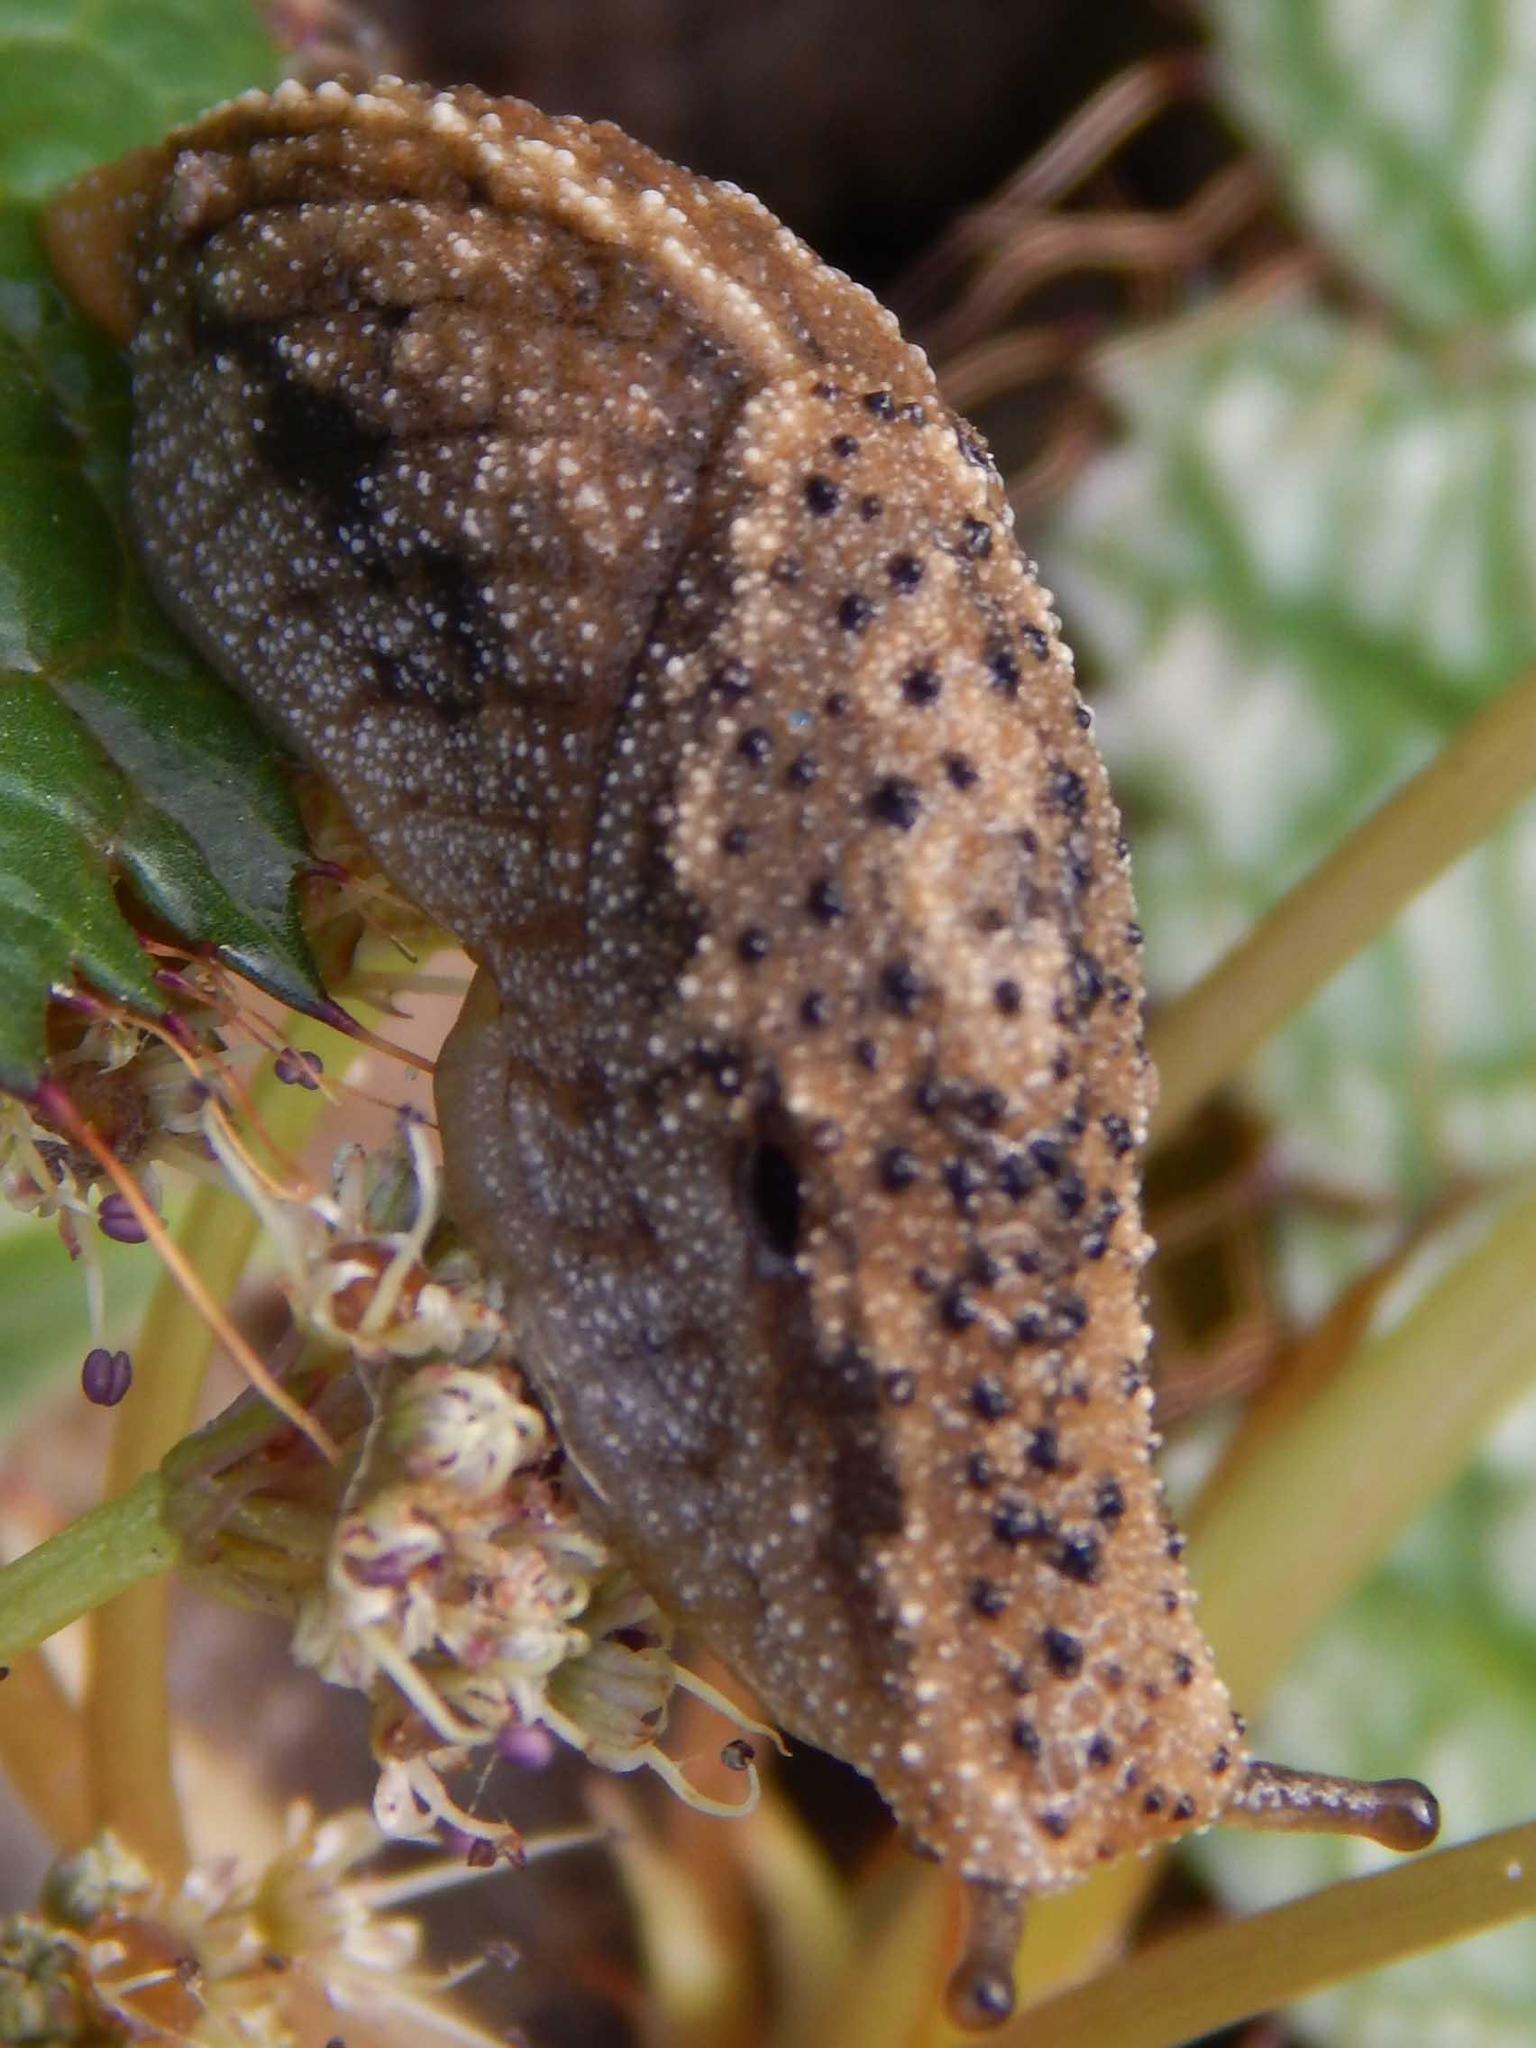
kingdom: Animalia
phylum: Mollusca
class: Gastropoda
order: Stylommatophora
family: Oopeltidae
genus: Oopelta
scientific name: Oopelta nigropunctata
